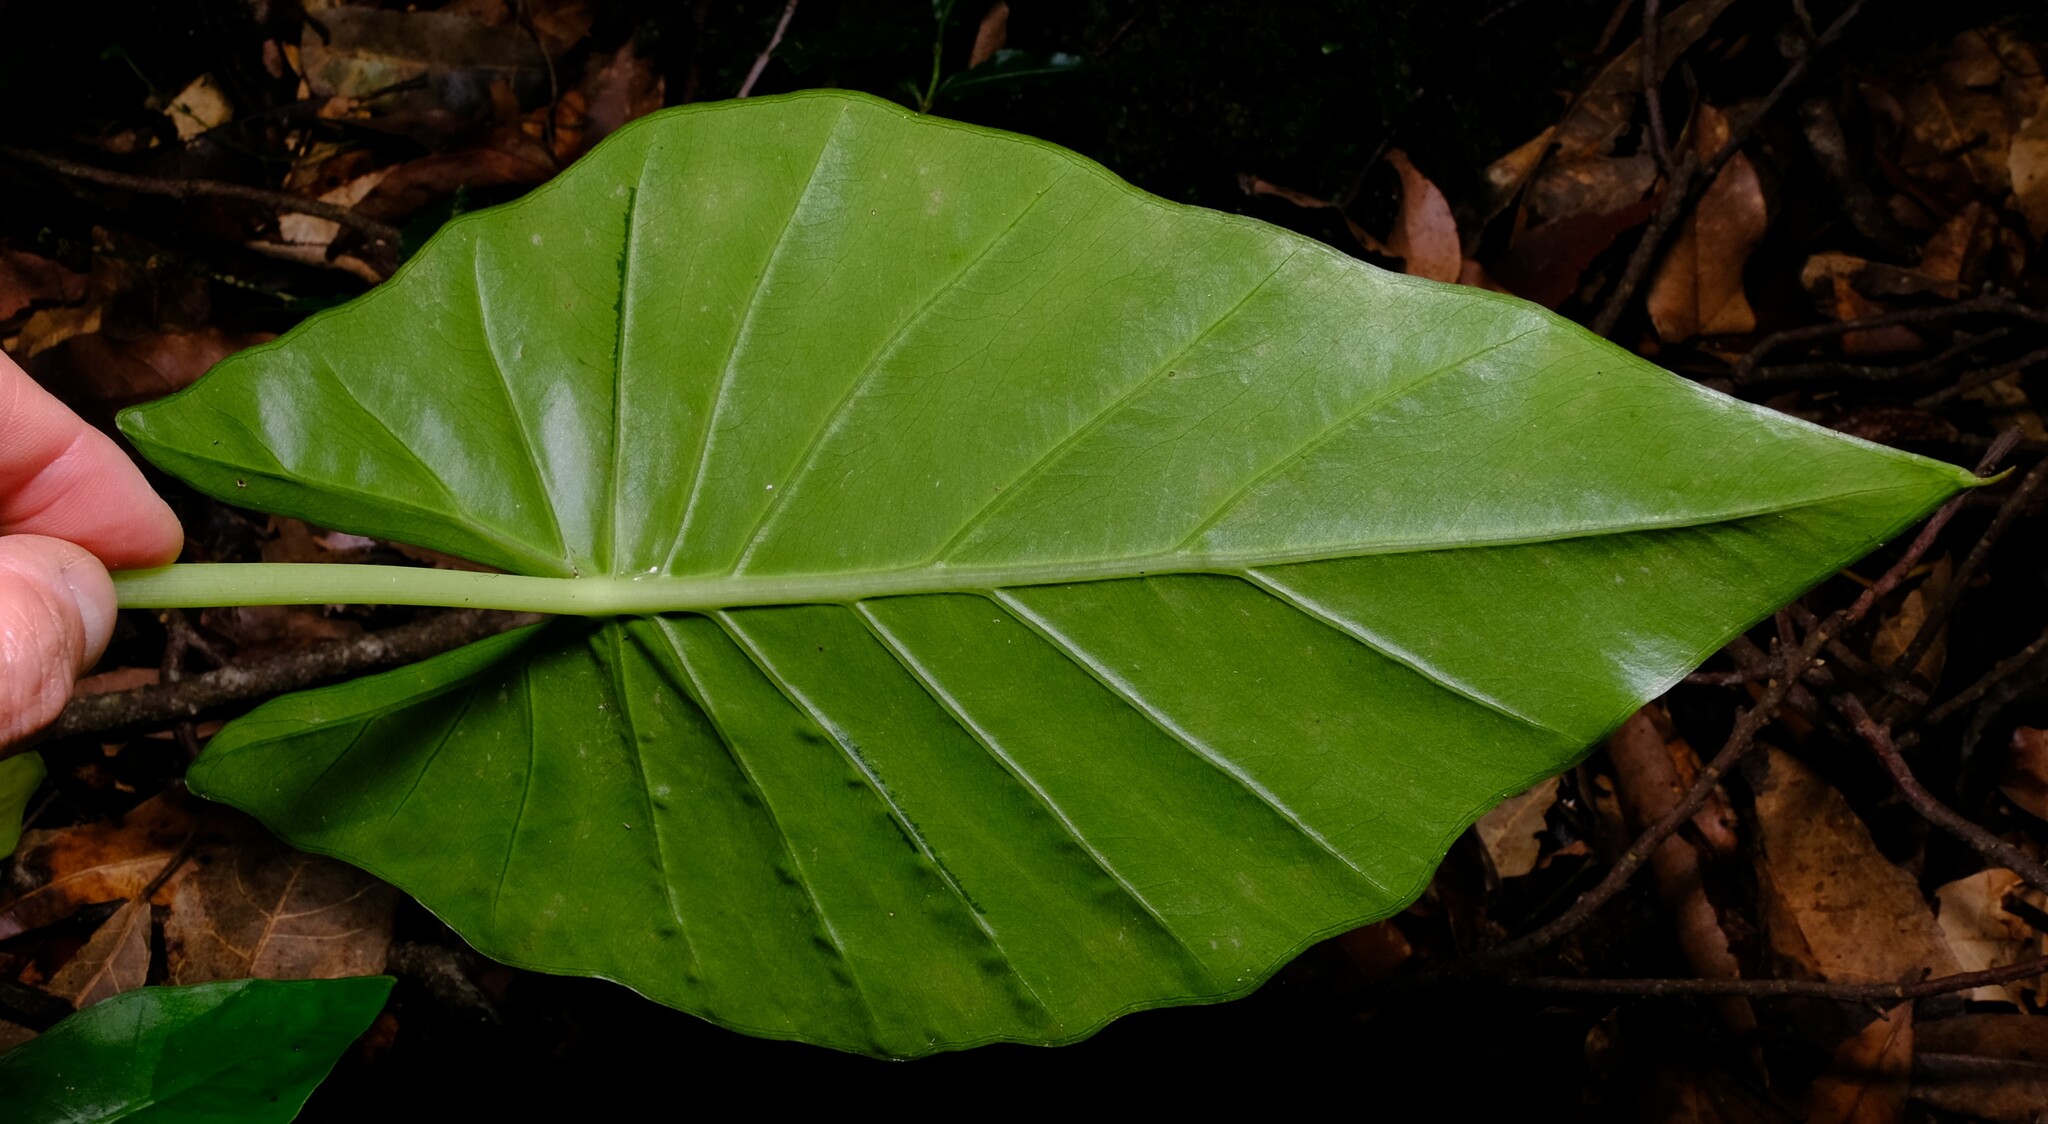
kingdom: Plantae
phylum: Tracheophyta
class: Liliopsida
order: Alismatales
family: Araceae
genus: Alocasia
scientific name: Alocasia brisbanensis
